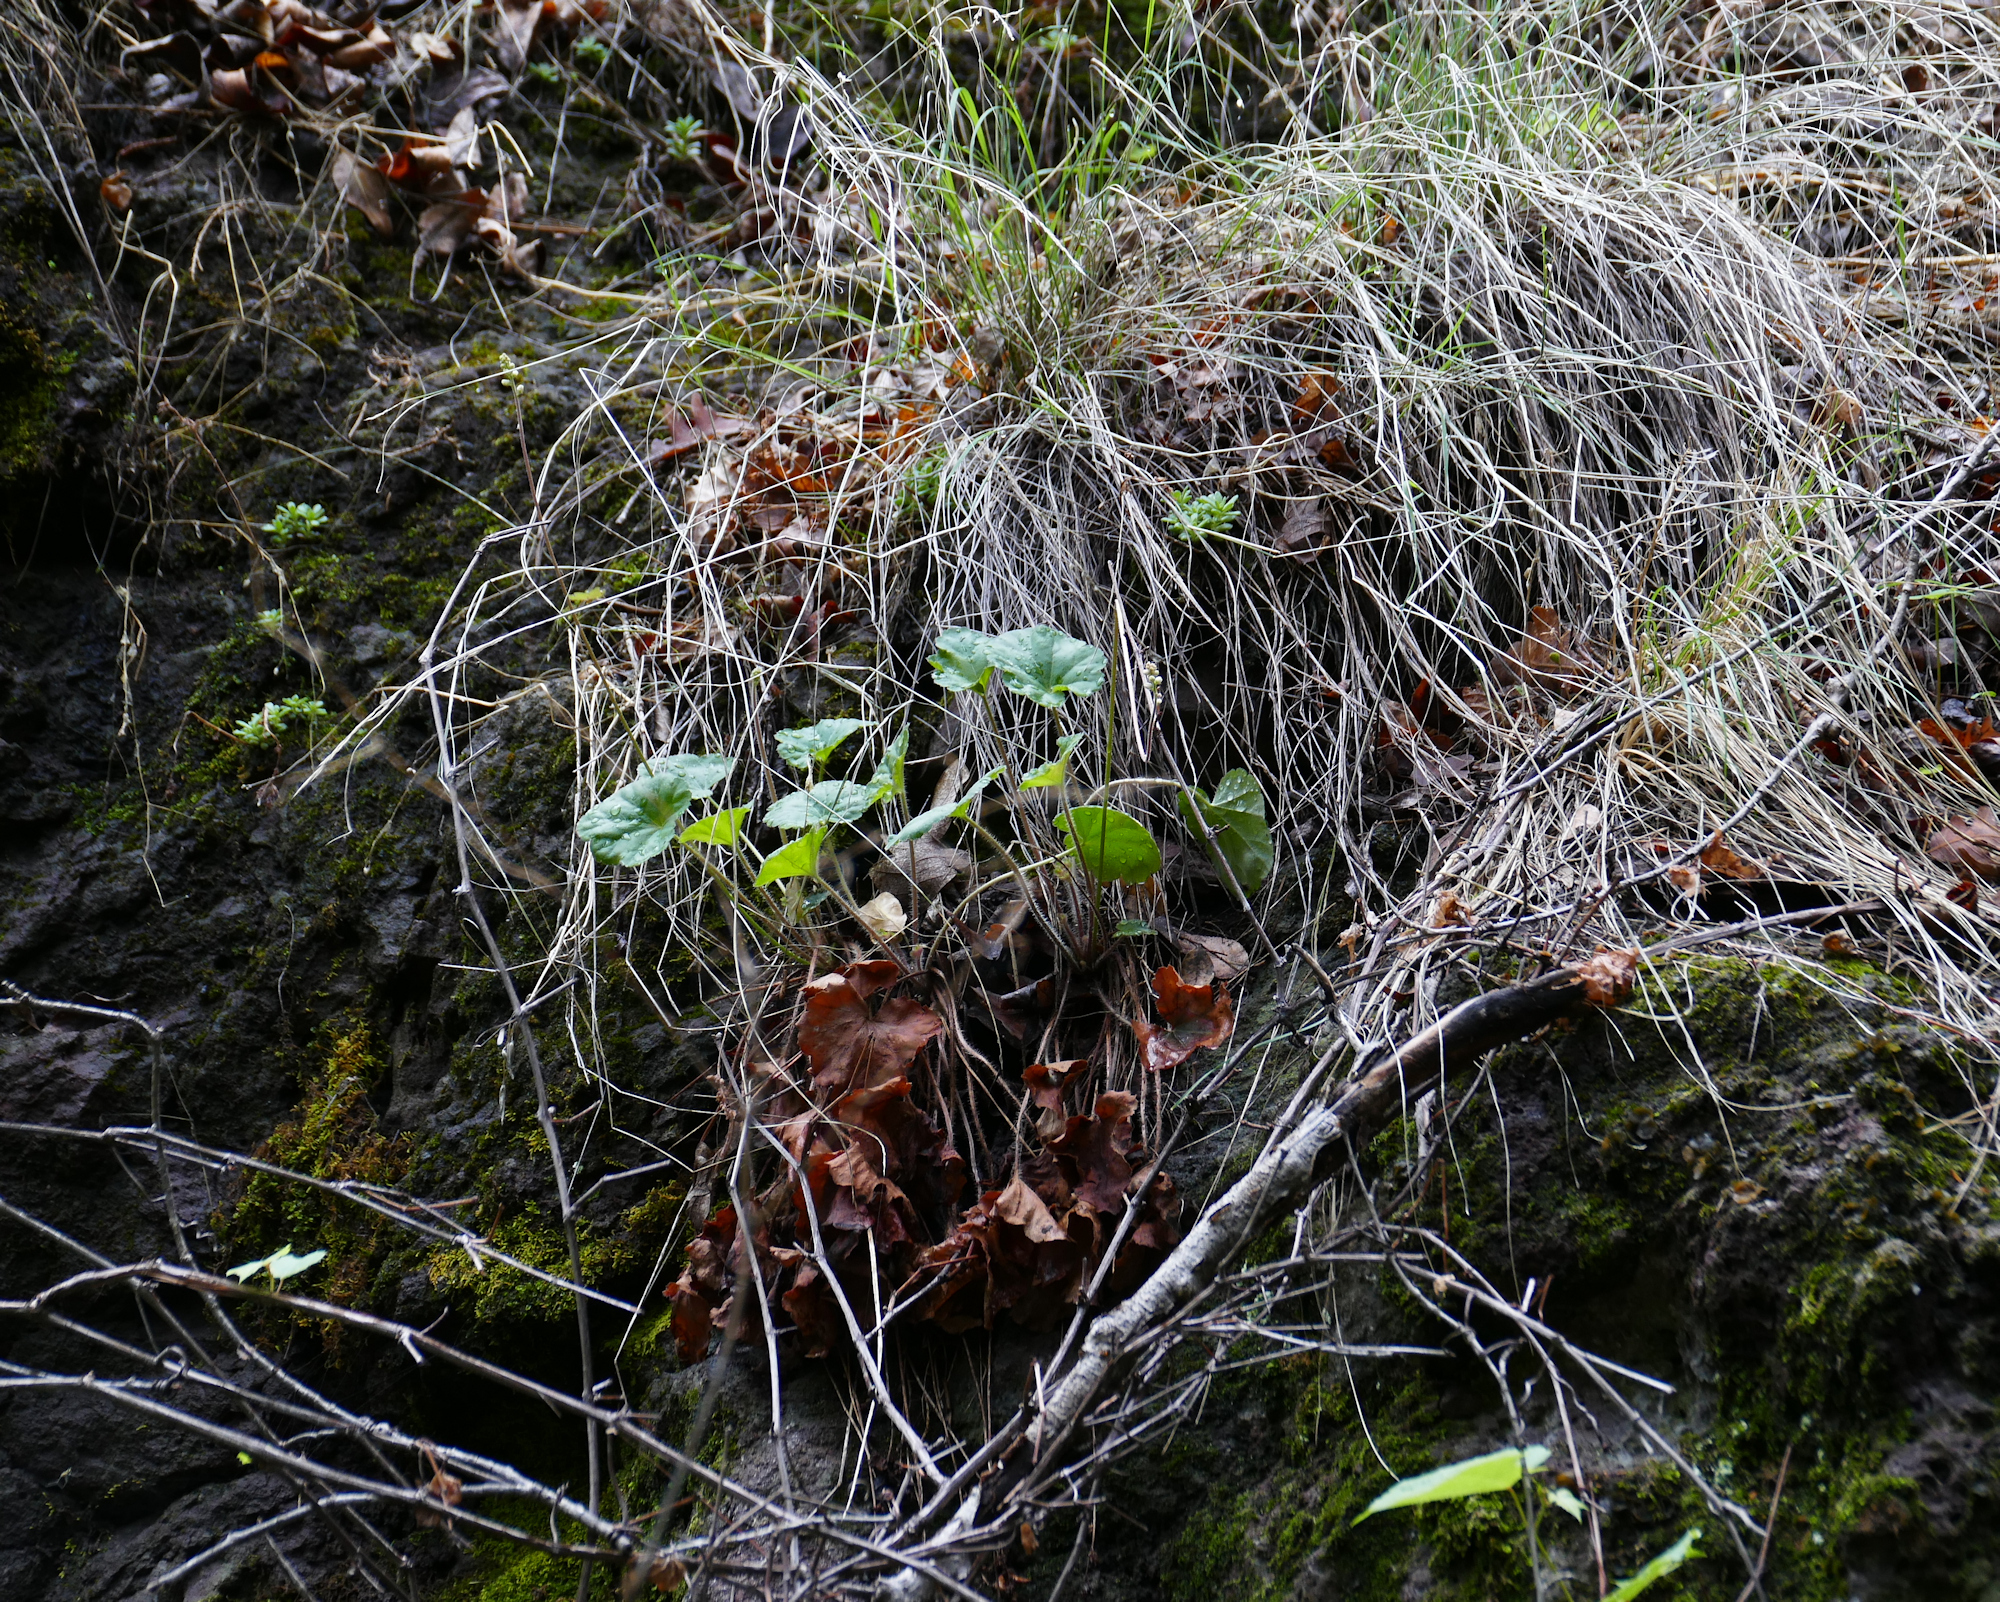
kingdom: Plantae
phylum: Tracheophyta
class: Magnoliopsida
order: Saxifragales
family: Saxifragaceae
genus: Heuchera
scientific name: Heuchera novomexicana
